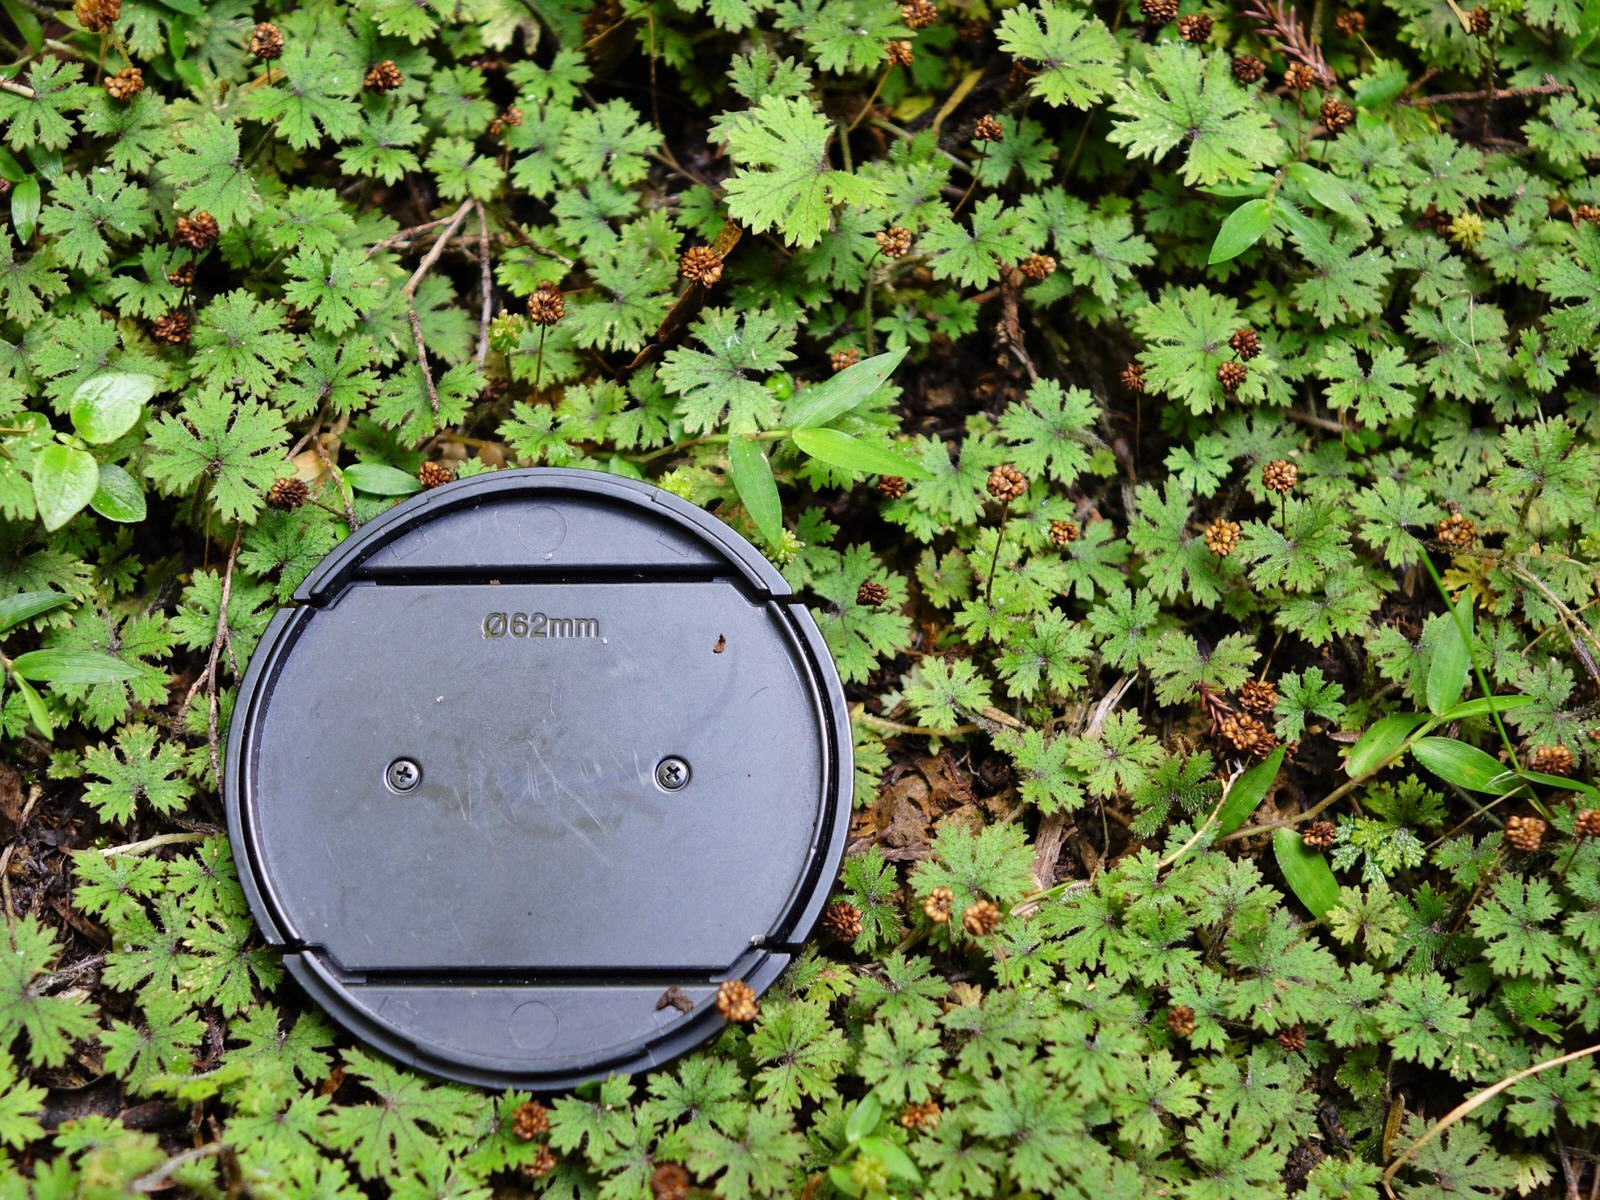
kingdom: Plantae
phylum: Tracheophyta
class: Magnoliopsida
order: Apiales
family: Araliaceae
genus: Hydrocotyle
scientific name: Hydrocotyle dissecta
